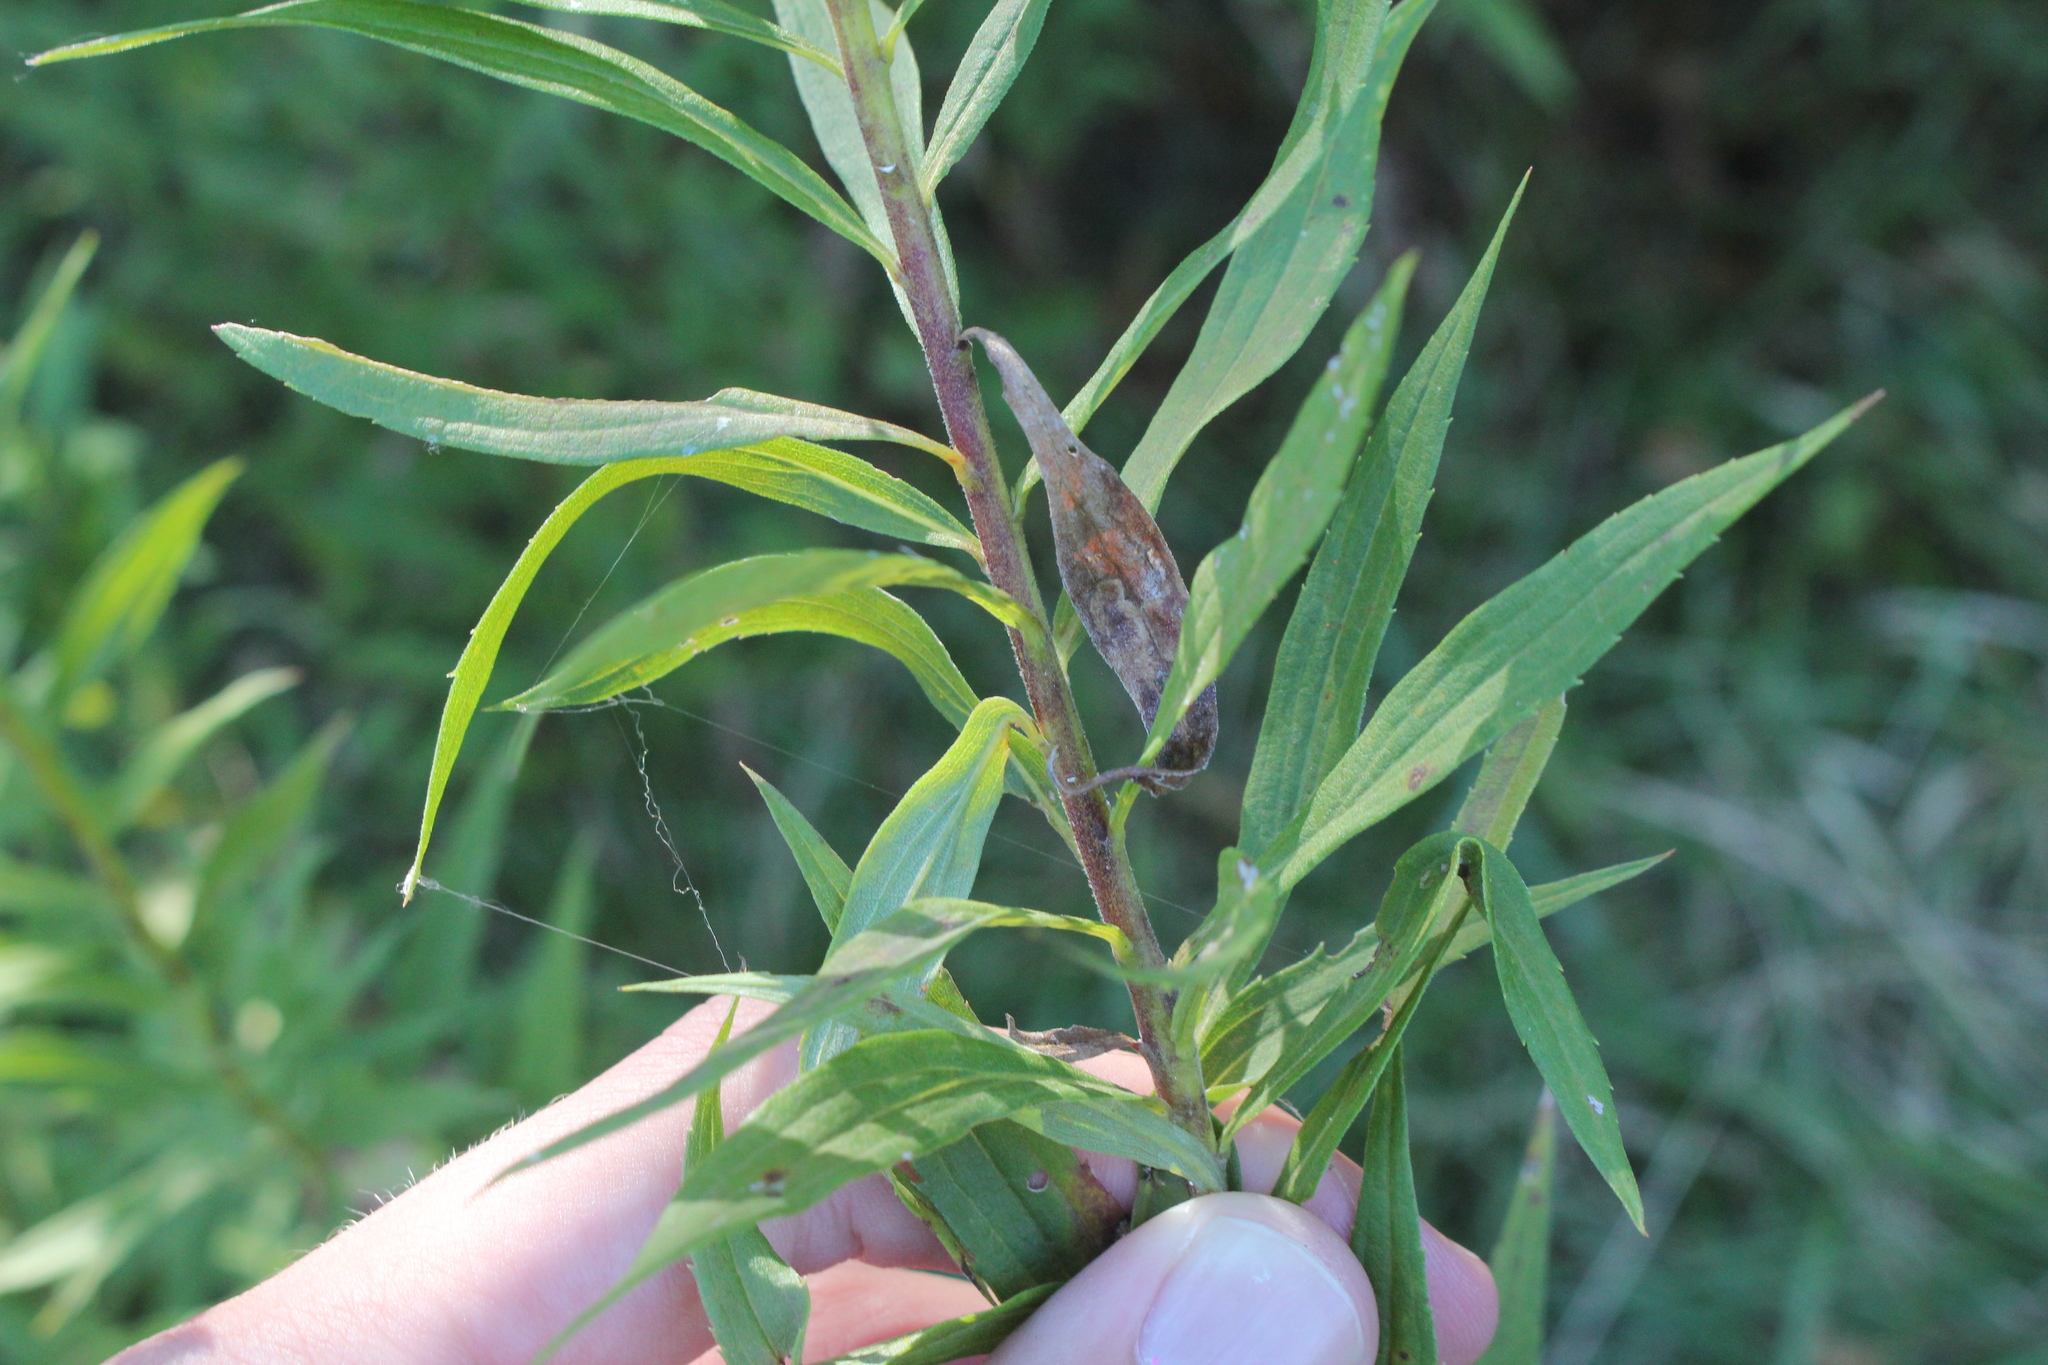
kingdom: Plantae
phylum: Tracheophyta
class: Magnoliopsida
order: Asterales
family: Asteraceae
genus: Solidago
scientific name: Solidago altissima
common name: Late goldenrod
